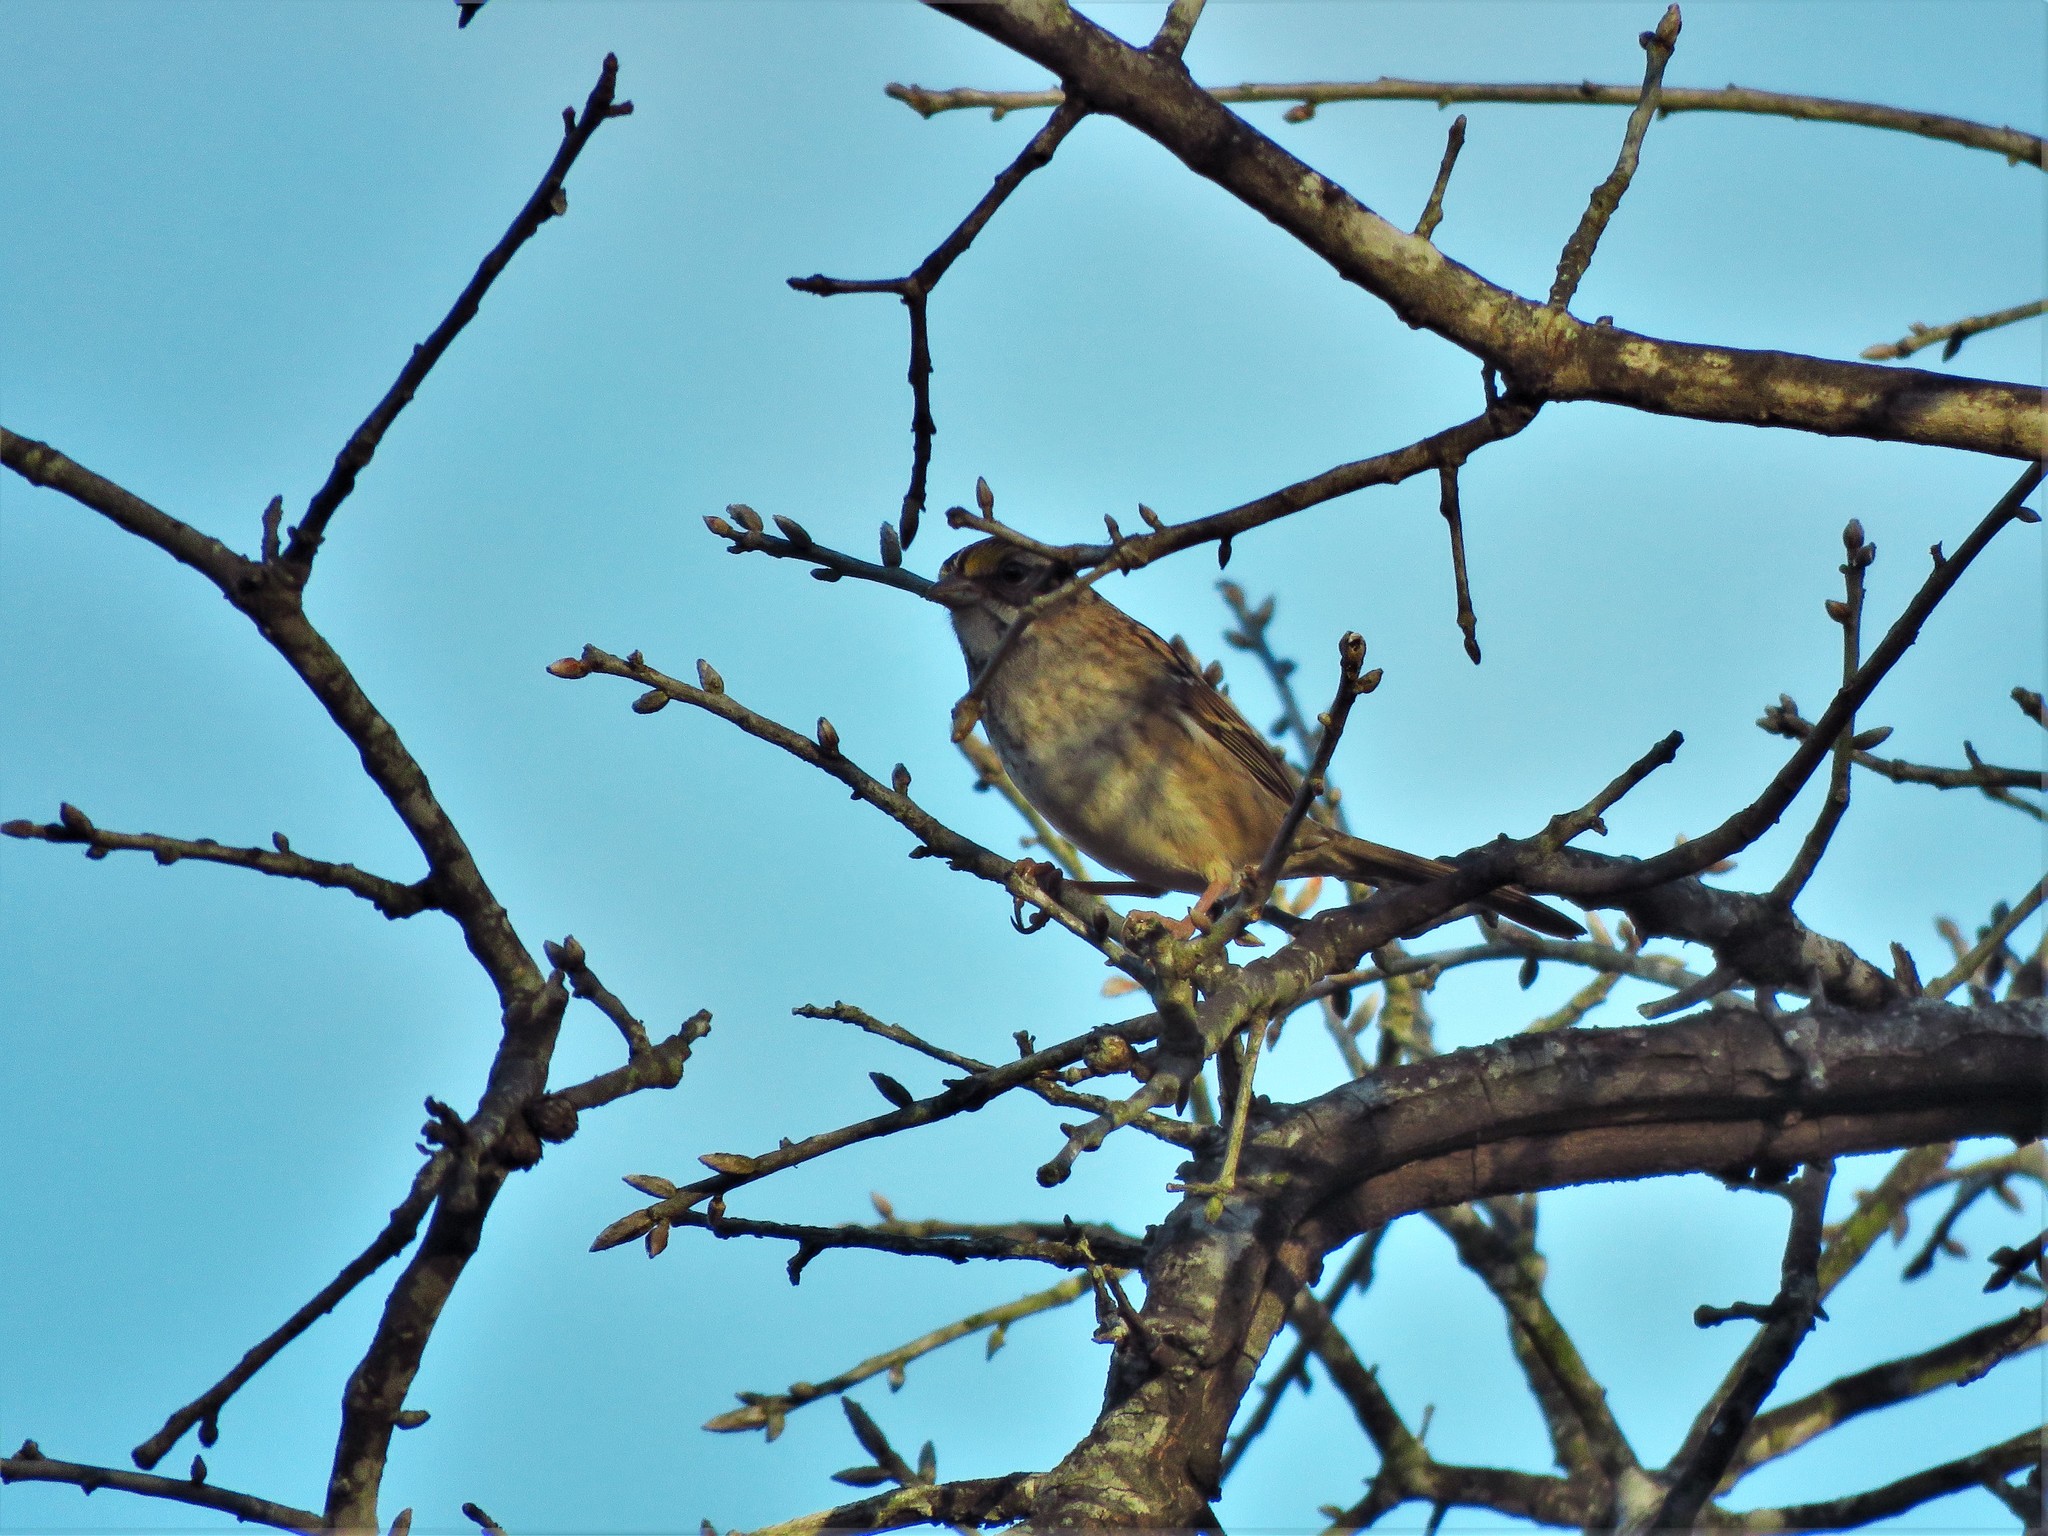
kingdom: Animalia
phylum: Chordata
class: Aves
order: Passeriformes
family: Passerellidae
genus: Zonotrichia
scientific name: Zonotrichia albicollis
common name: White-throated sparrow
